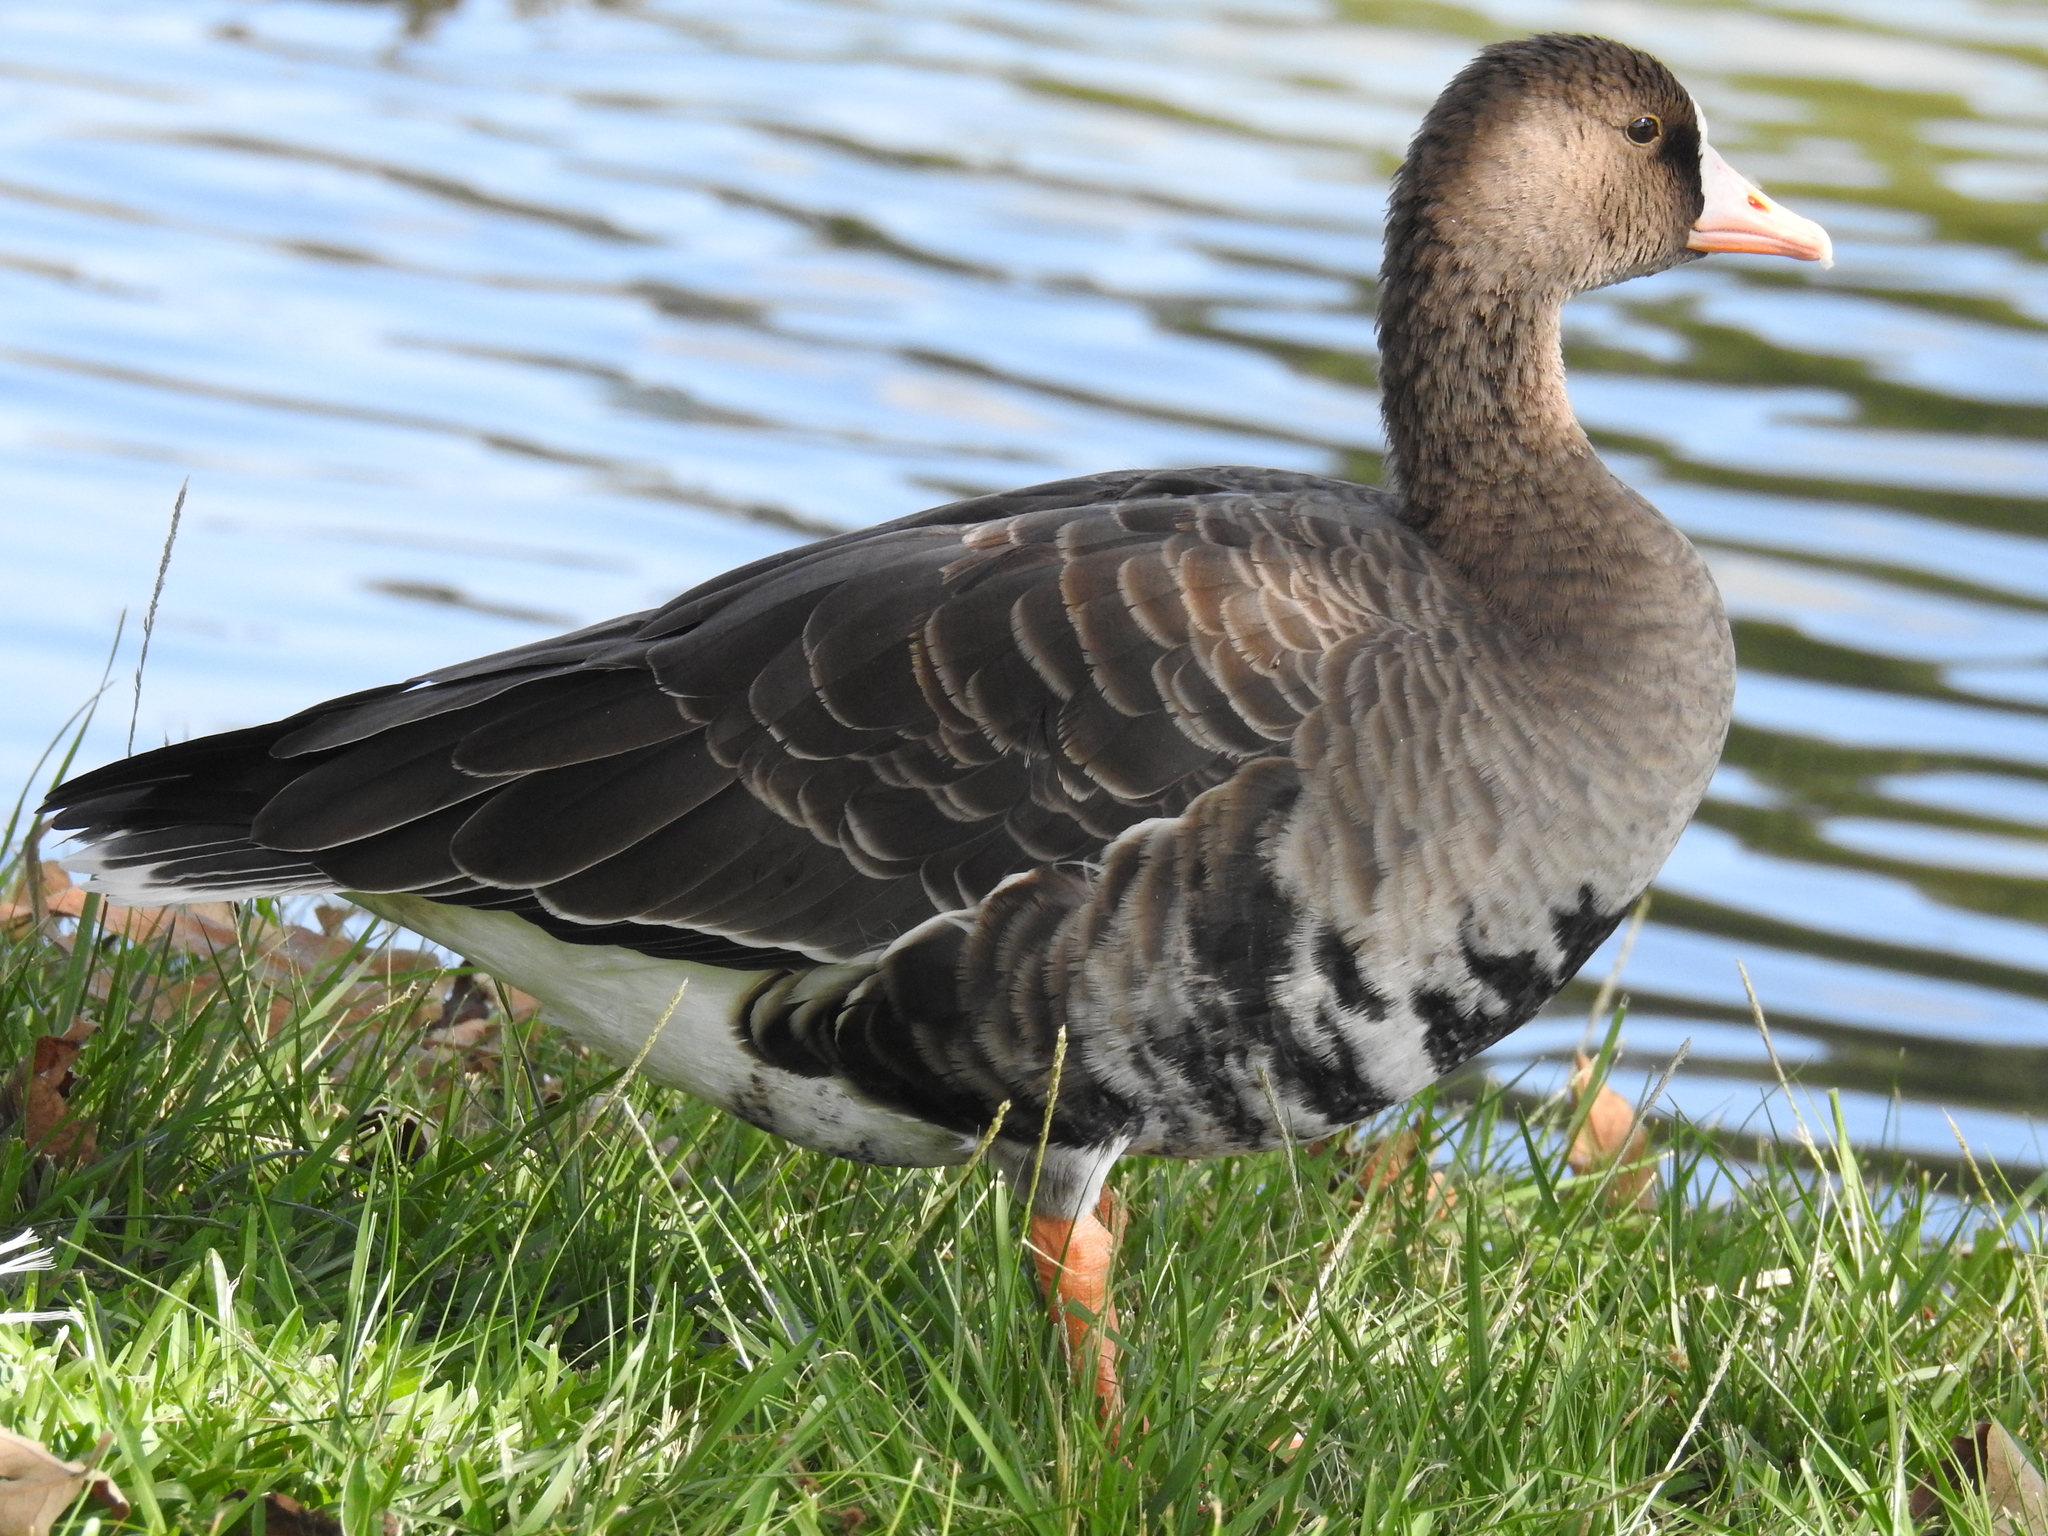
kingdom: Animalia
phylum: Chordata
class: Aves
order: Anseriformes
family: Anatidae
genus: Anser
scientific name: Anser albifrons
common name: Greater white-fronted goose
